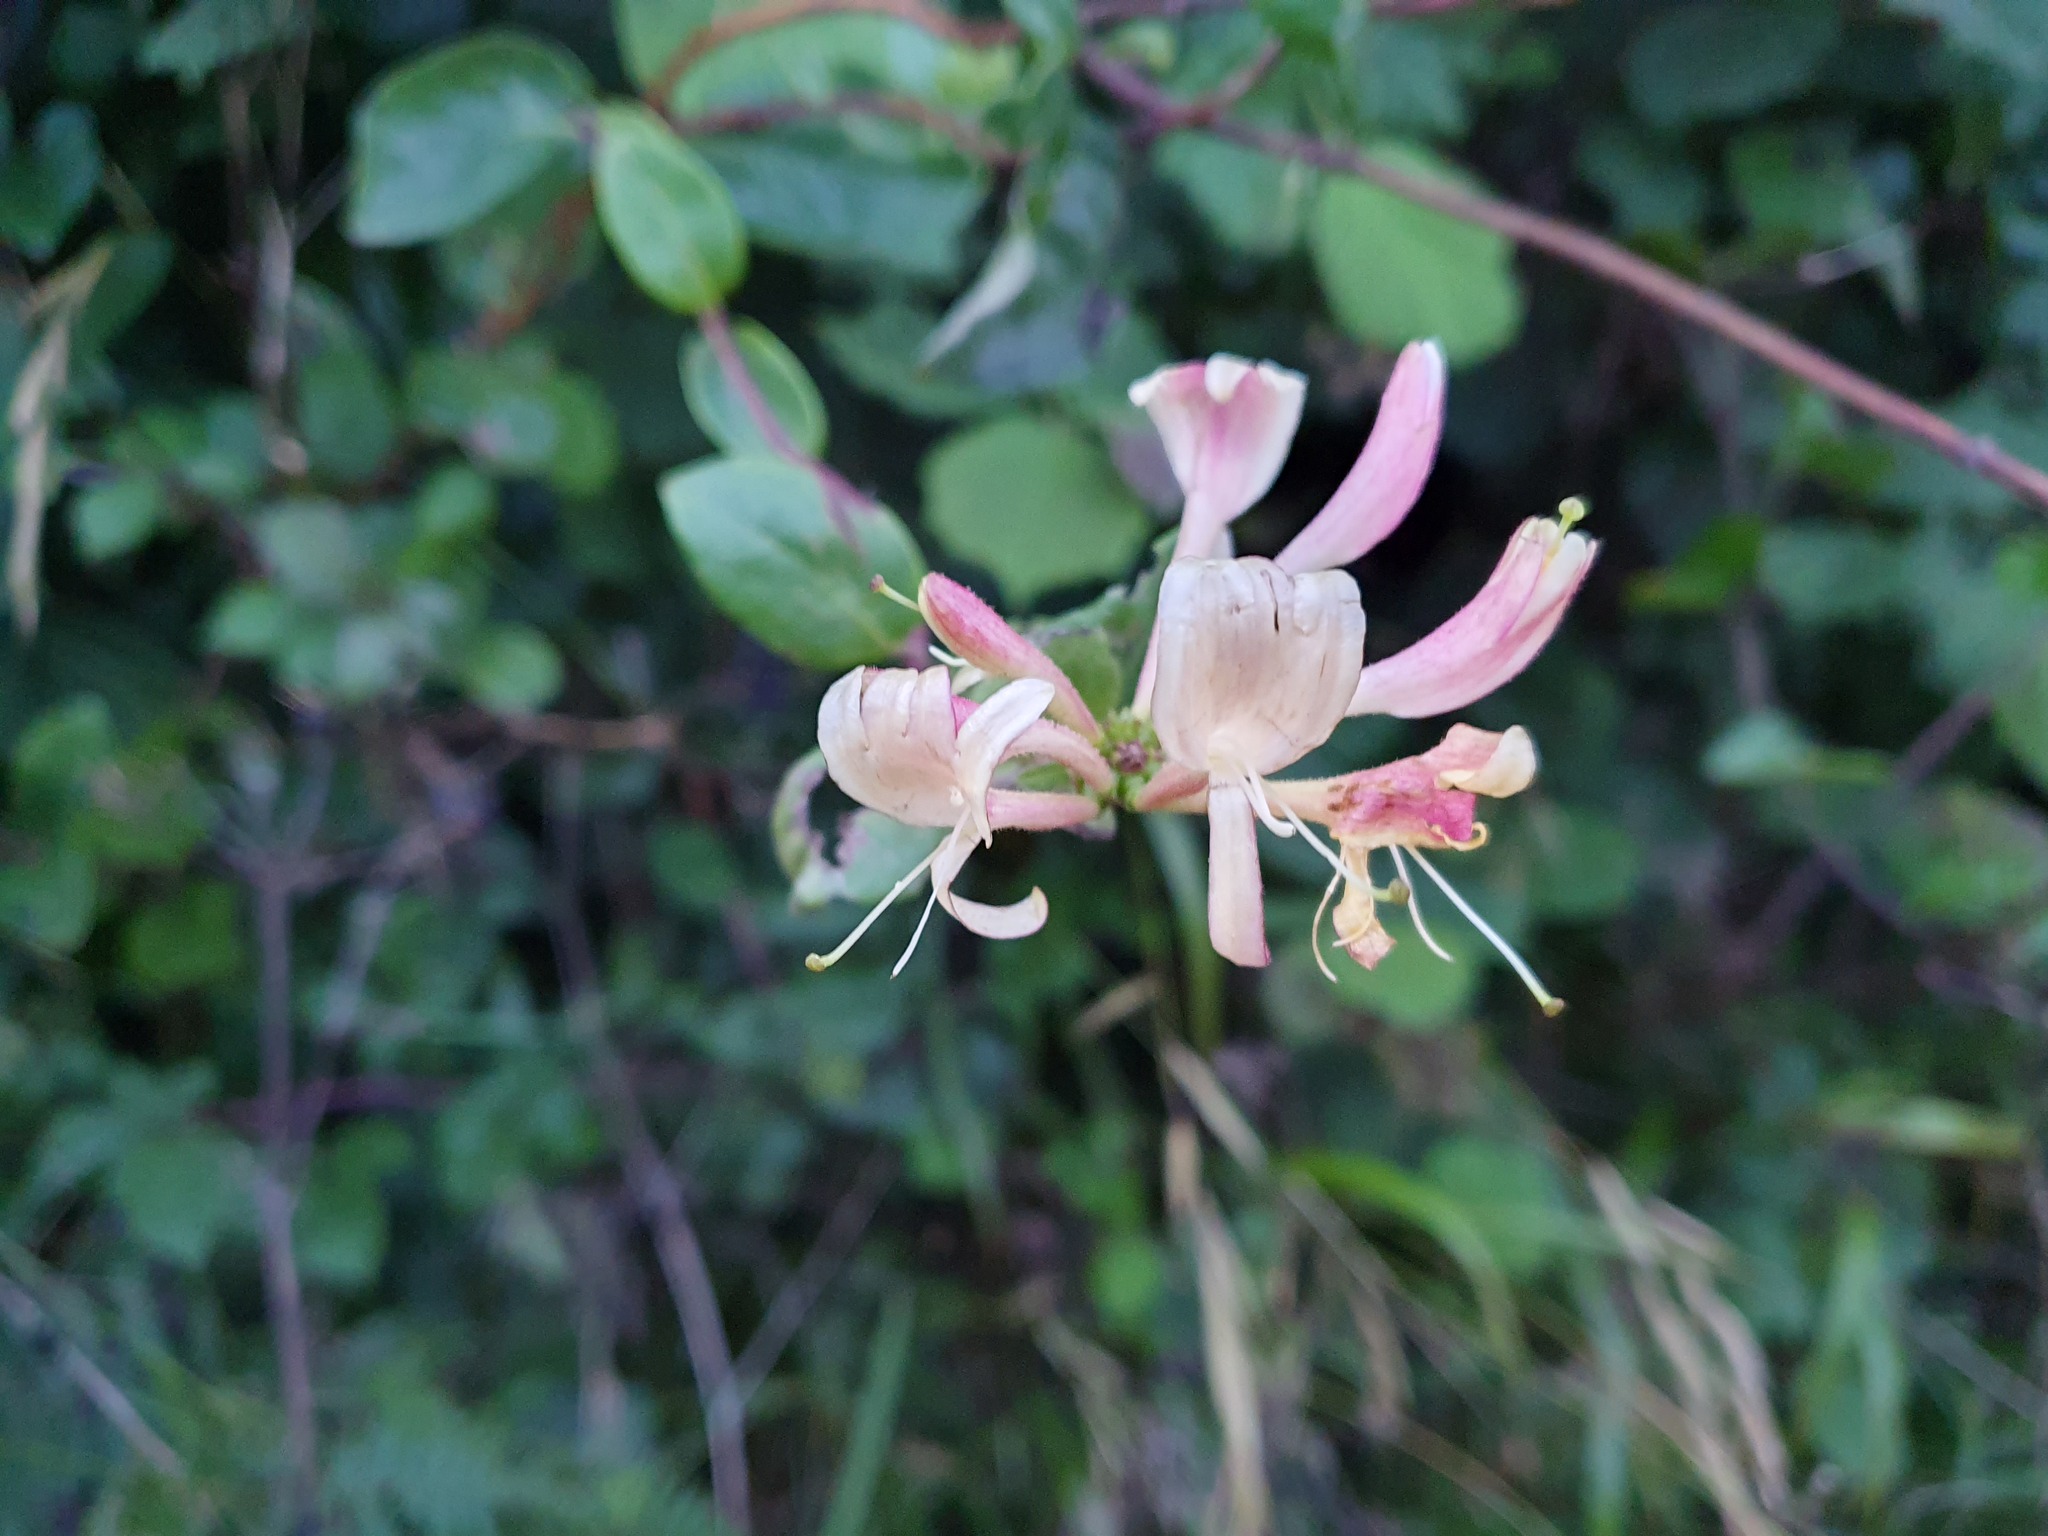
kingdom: Plantae
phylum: Tracheophyta
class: Magnoliopsida
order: Dipsacales
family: Caprifoliaceae
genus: Lonicera
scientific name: Lonicera periclymenum
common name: European honeysuckle
